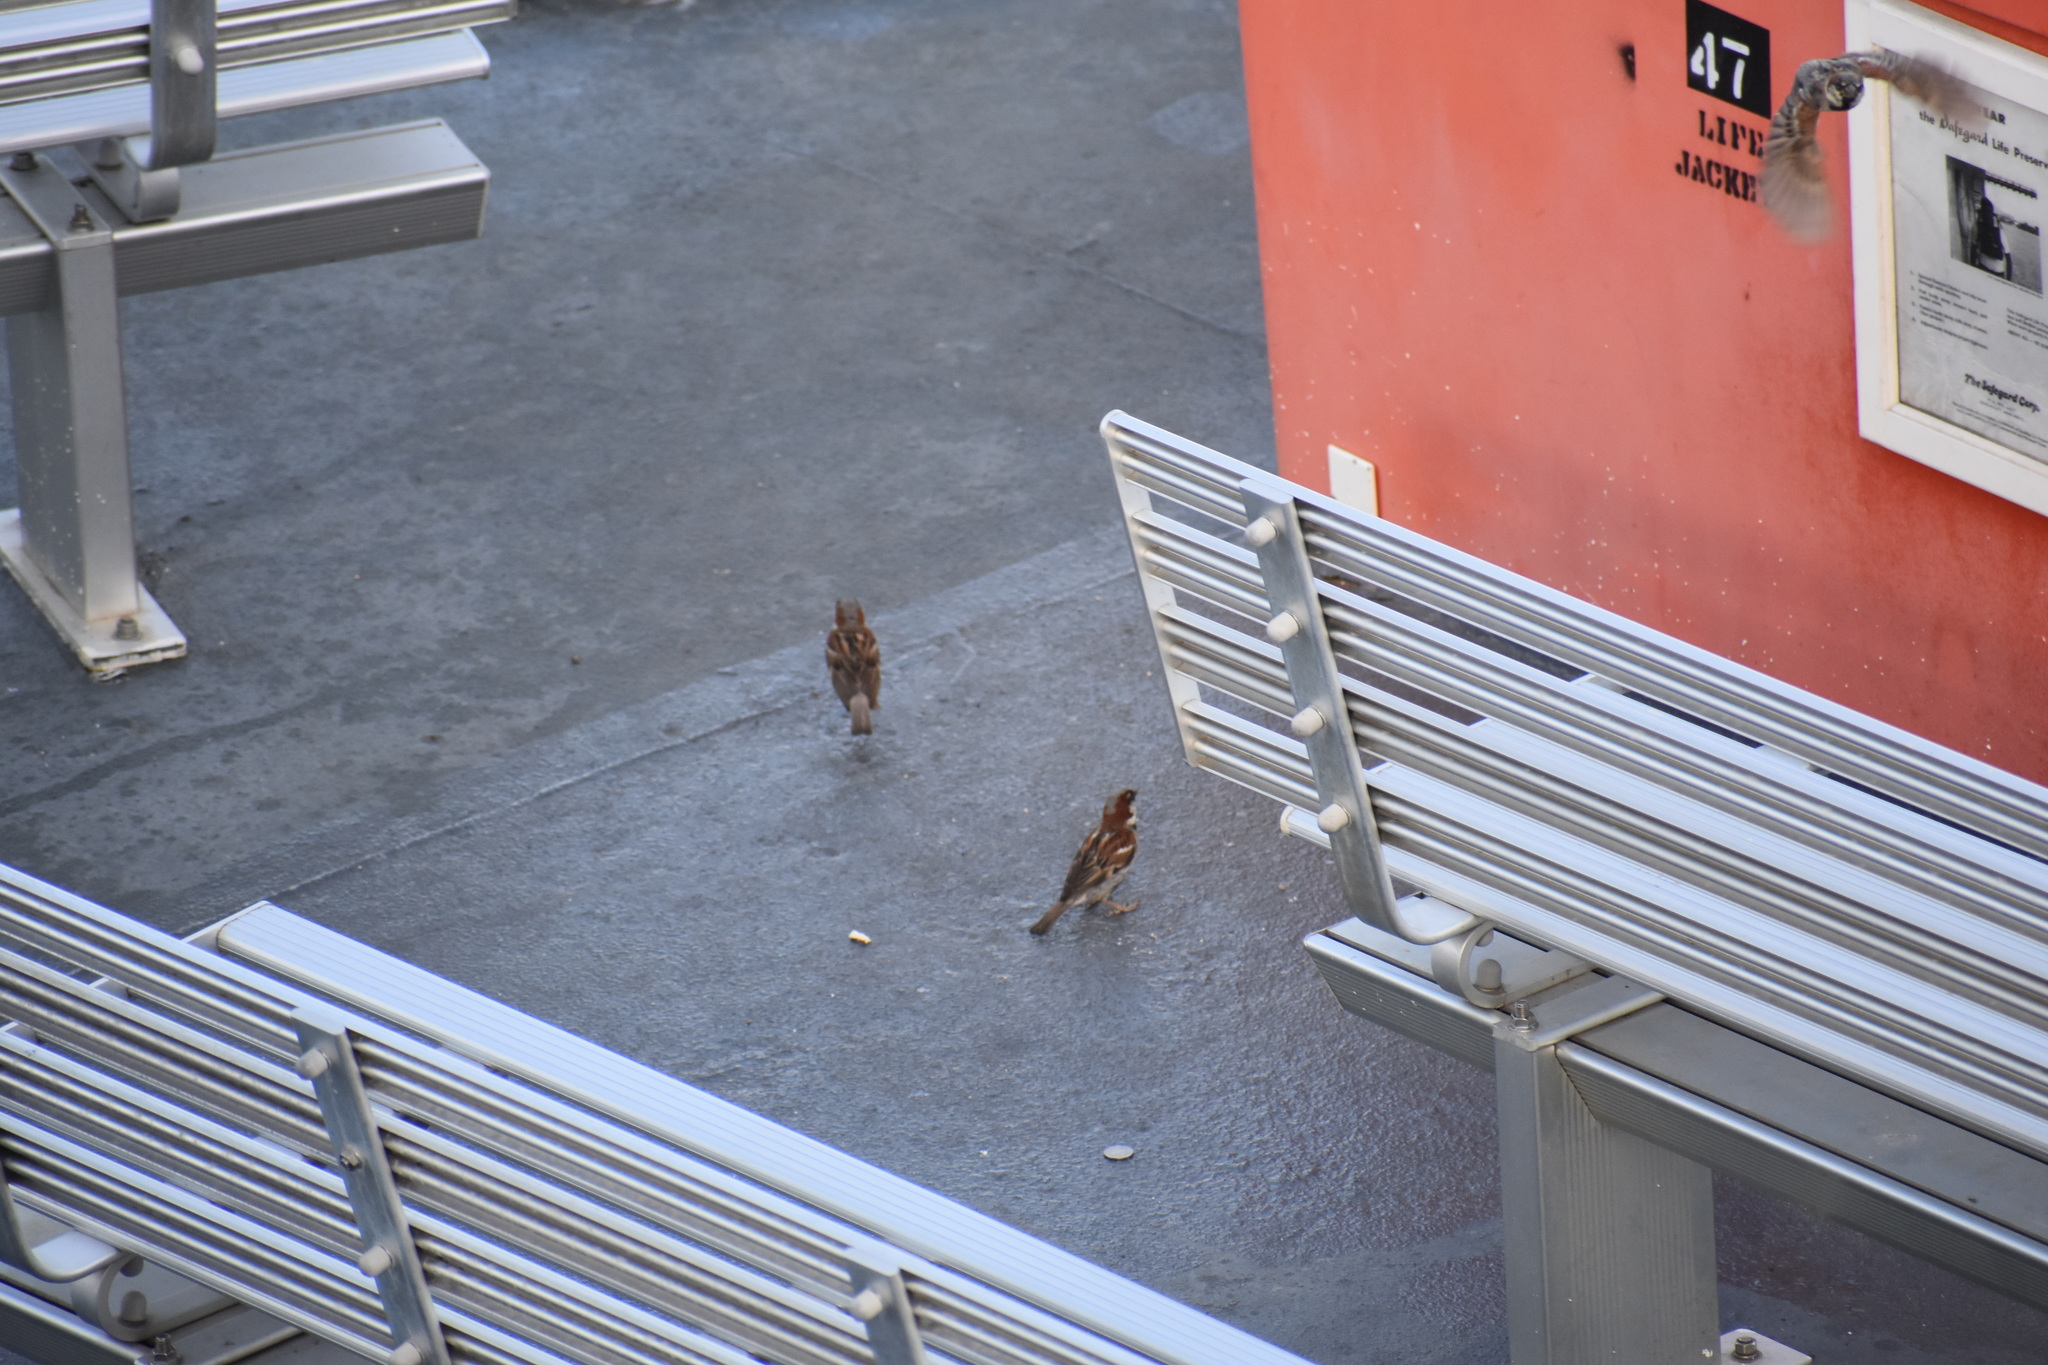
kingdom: Animalia
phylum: Chordata
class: Aves
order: Passeriformes
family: Passeridae
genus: Passer
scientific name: Passer domesticus
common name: House sparrow
